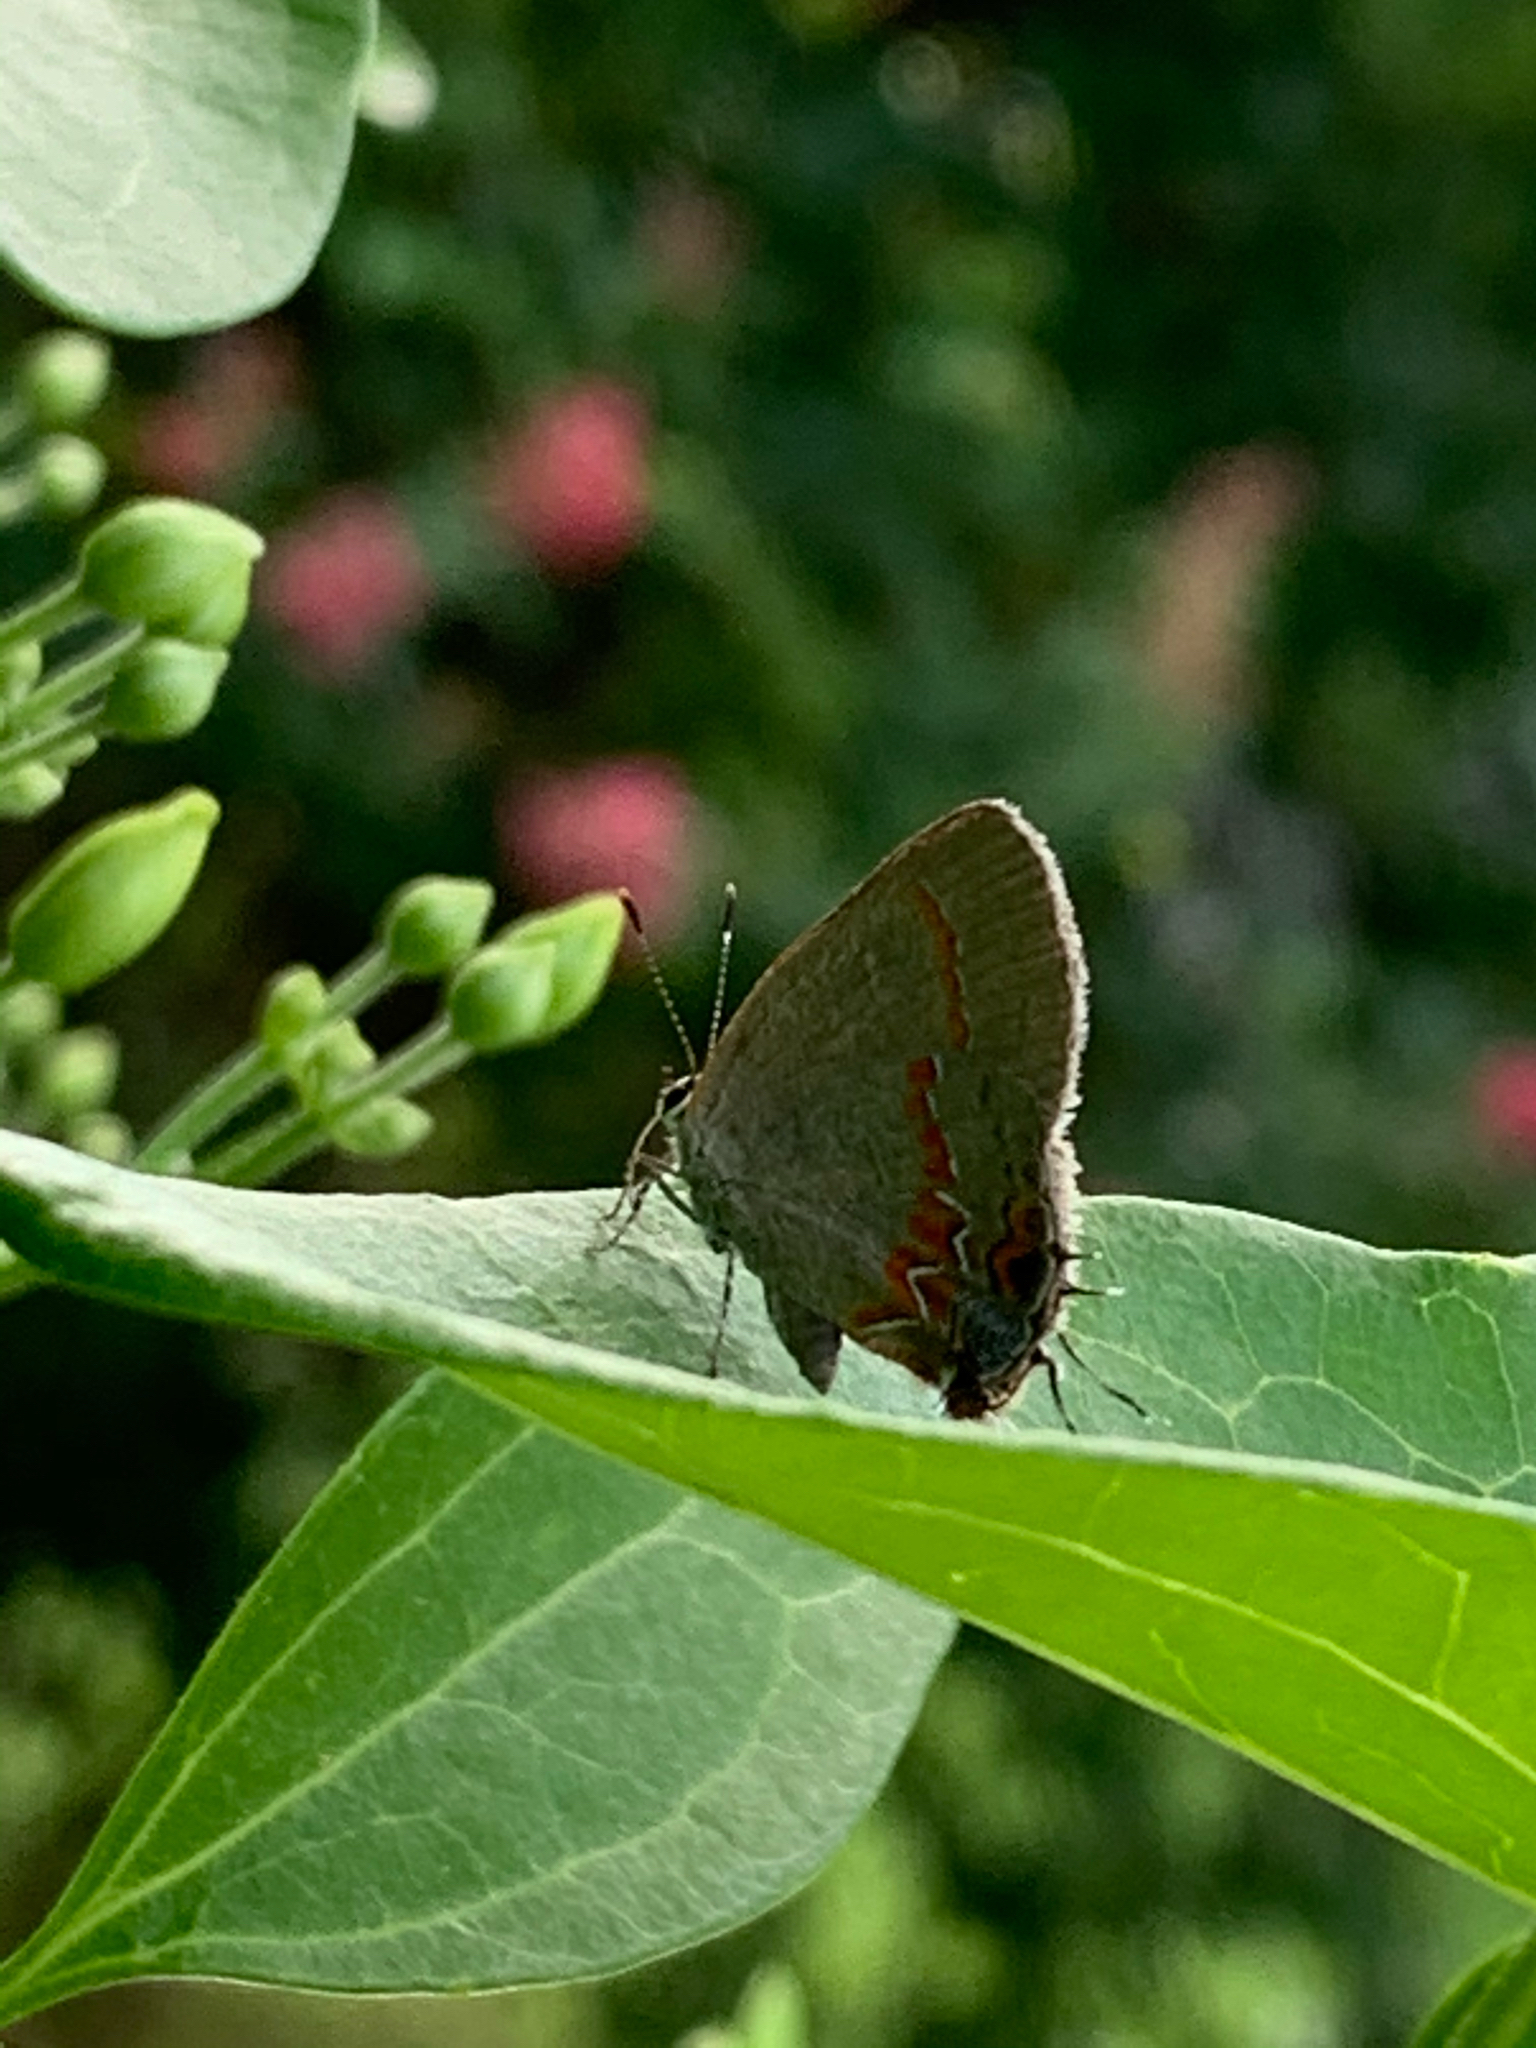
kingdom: Animalia
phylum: Arthropoda
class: Insecta
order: Lepidoptera
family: Lycaenidae
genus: Calycopis
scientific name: Calycopis cecrops
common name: Red-banded hairstreak
